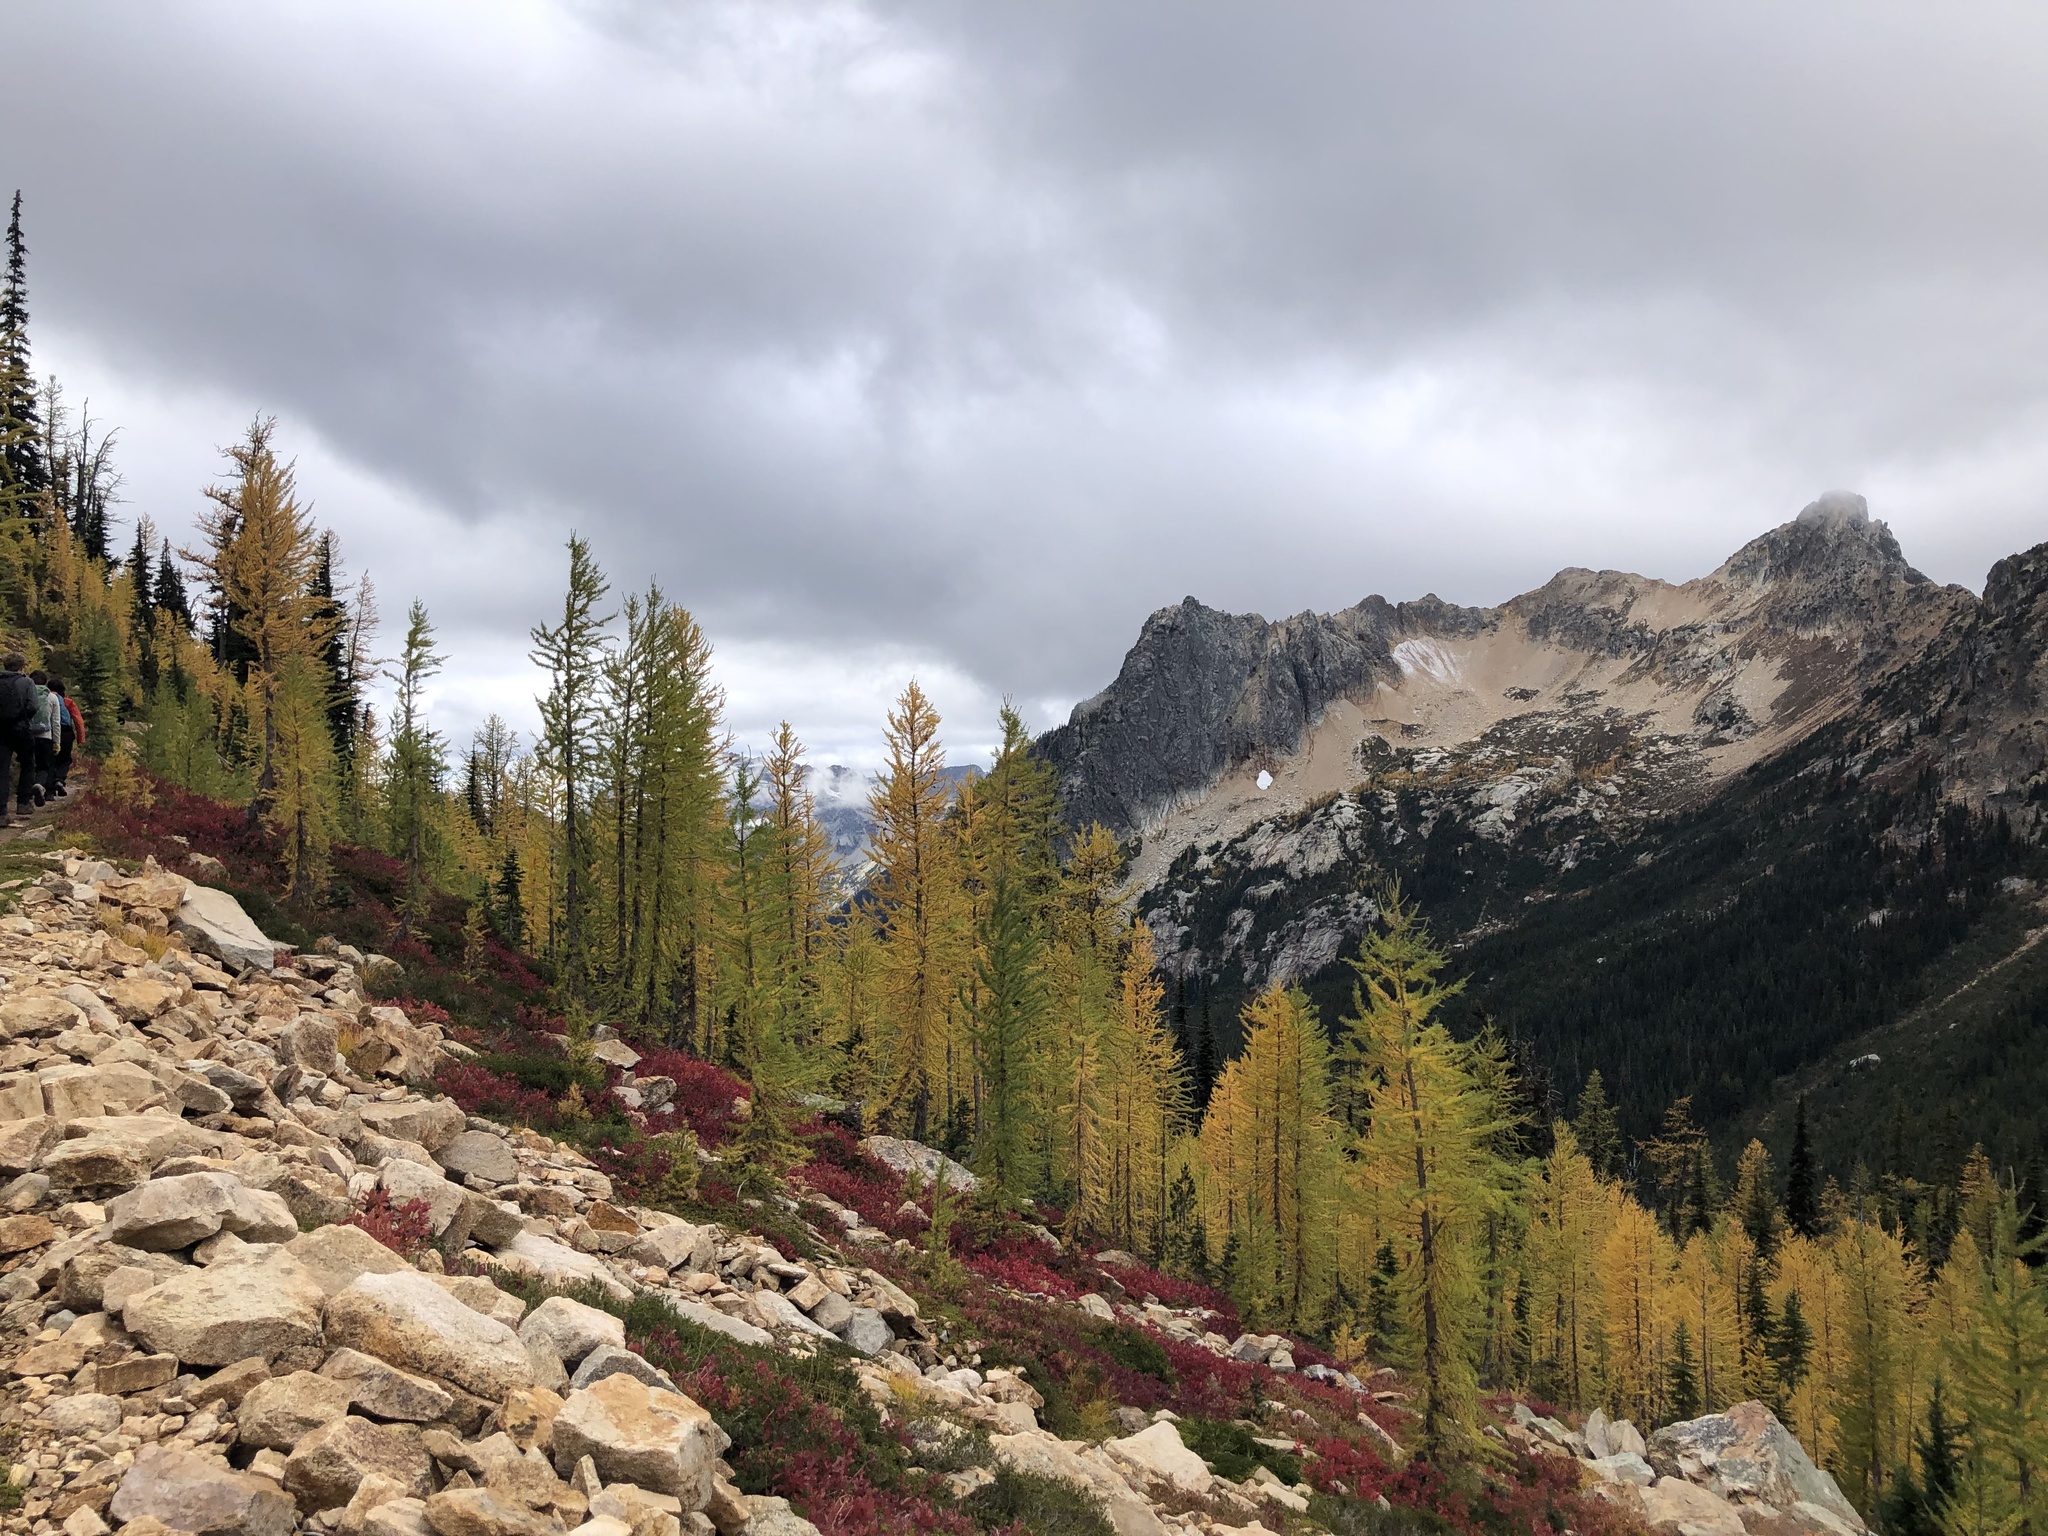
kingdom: Plantae
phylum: Tracheophyta
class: Pinopsida
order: Pinales
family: Pinaceae
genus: Larix
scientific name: Larix lyallii
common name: Alpine larch
